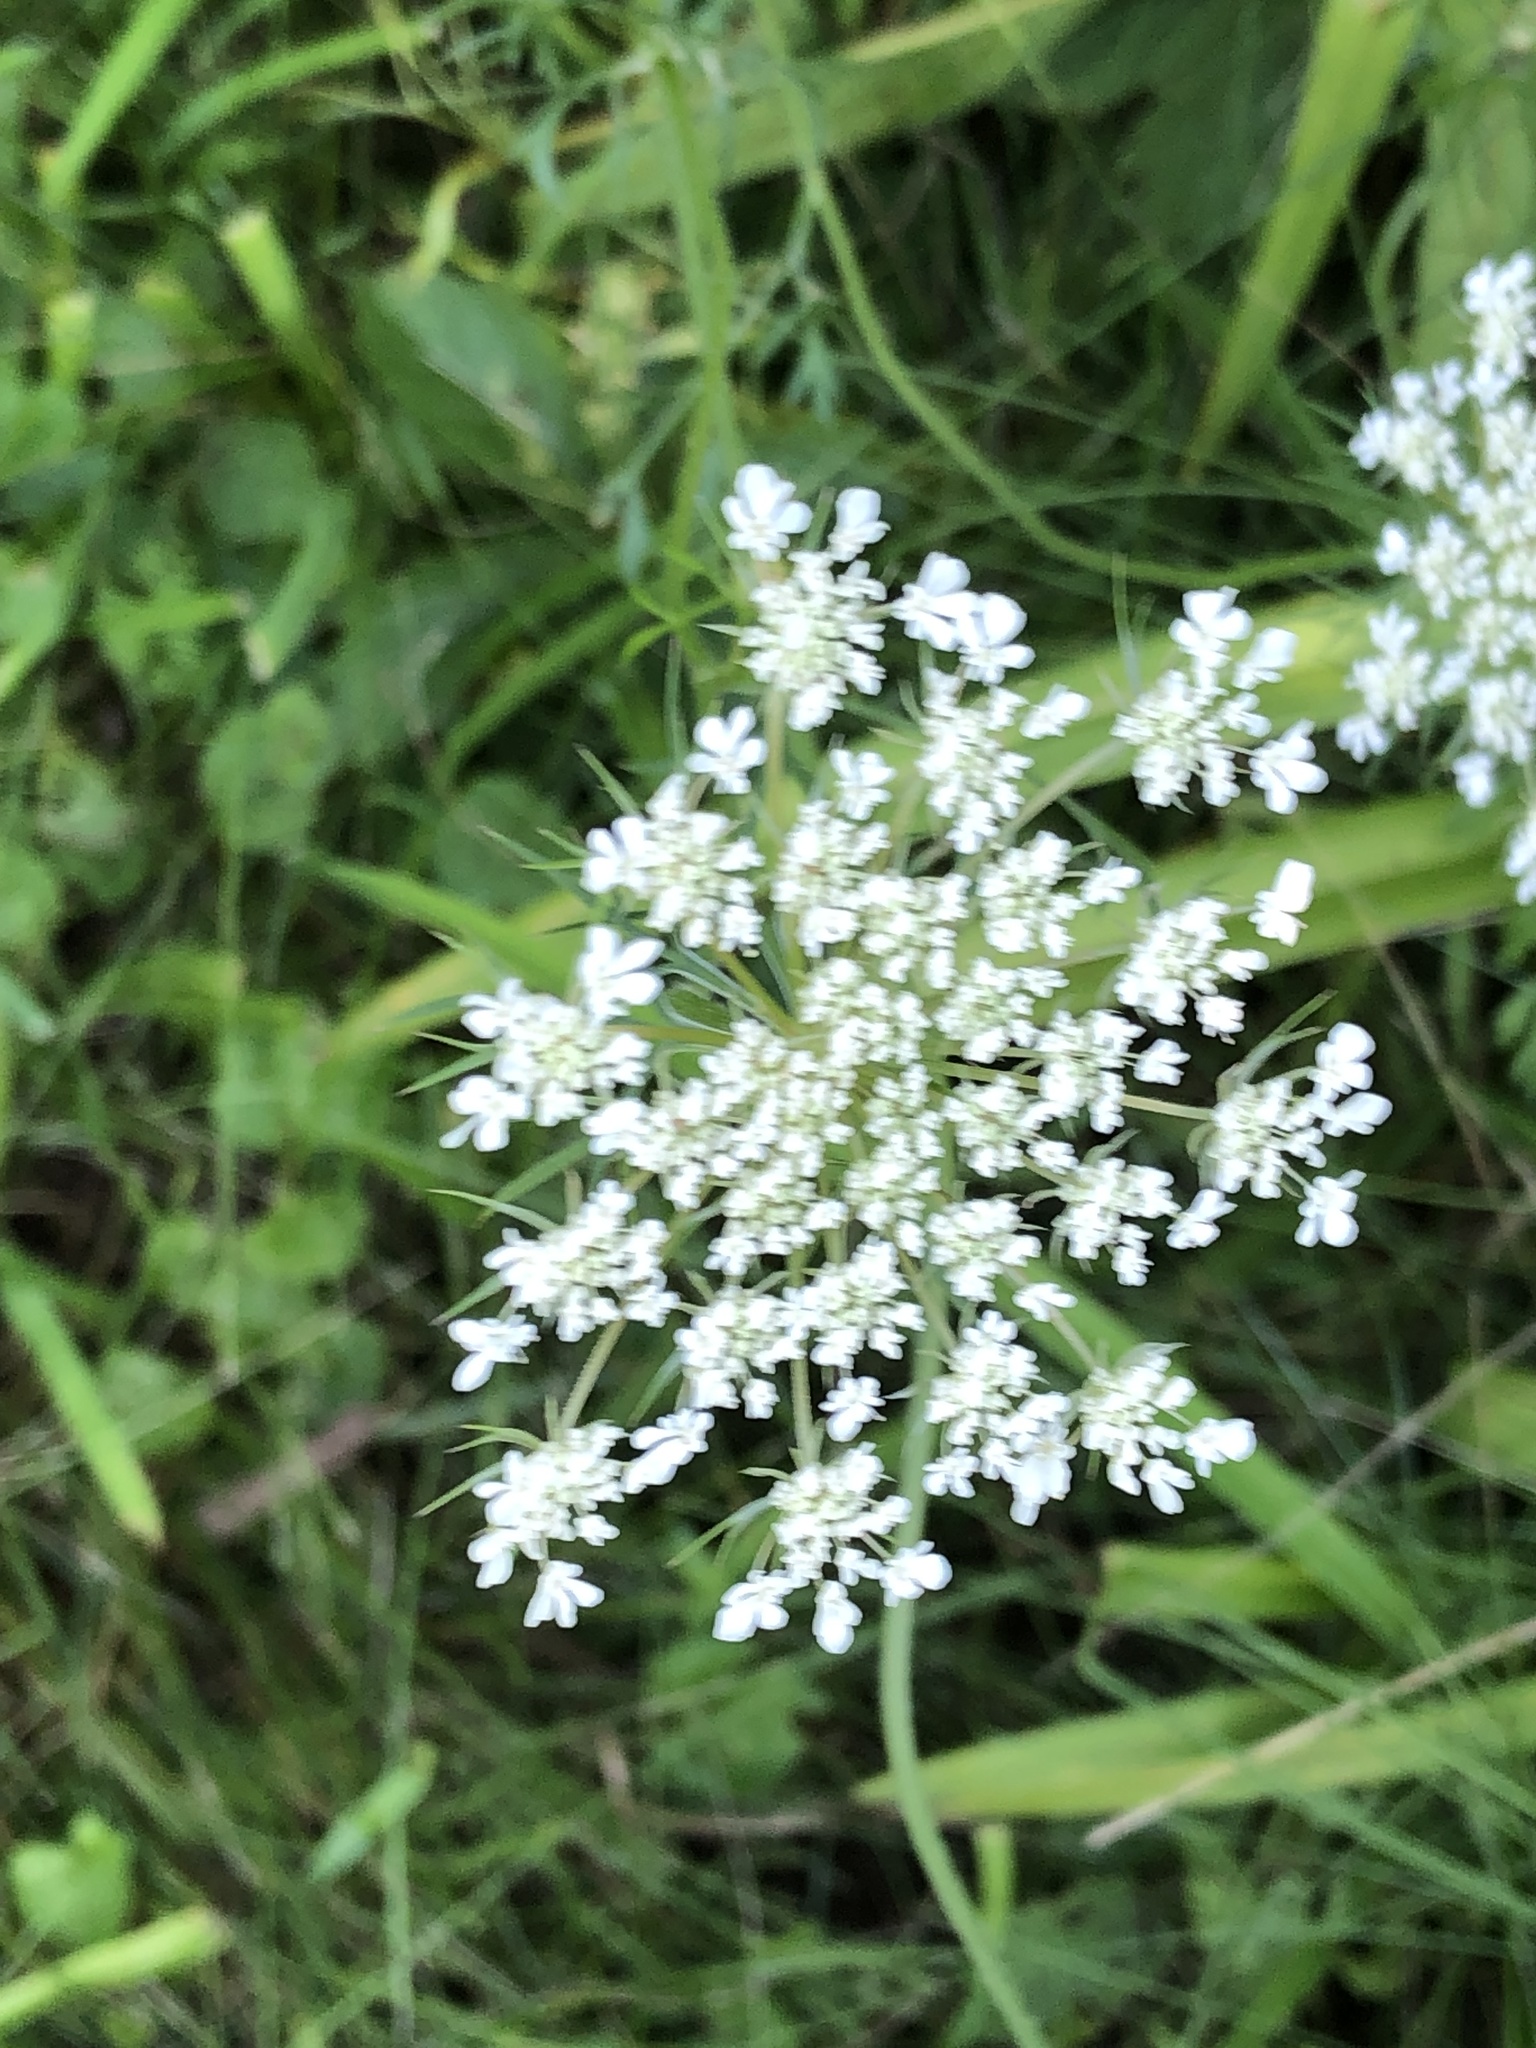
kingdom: Plantae
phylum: Tracheophyta
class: Magnoliopsida
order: Apiales
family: Apiaceae
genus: Daucus
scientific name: Daucus carota
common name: Wild carrot
